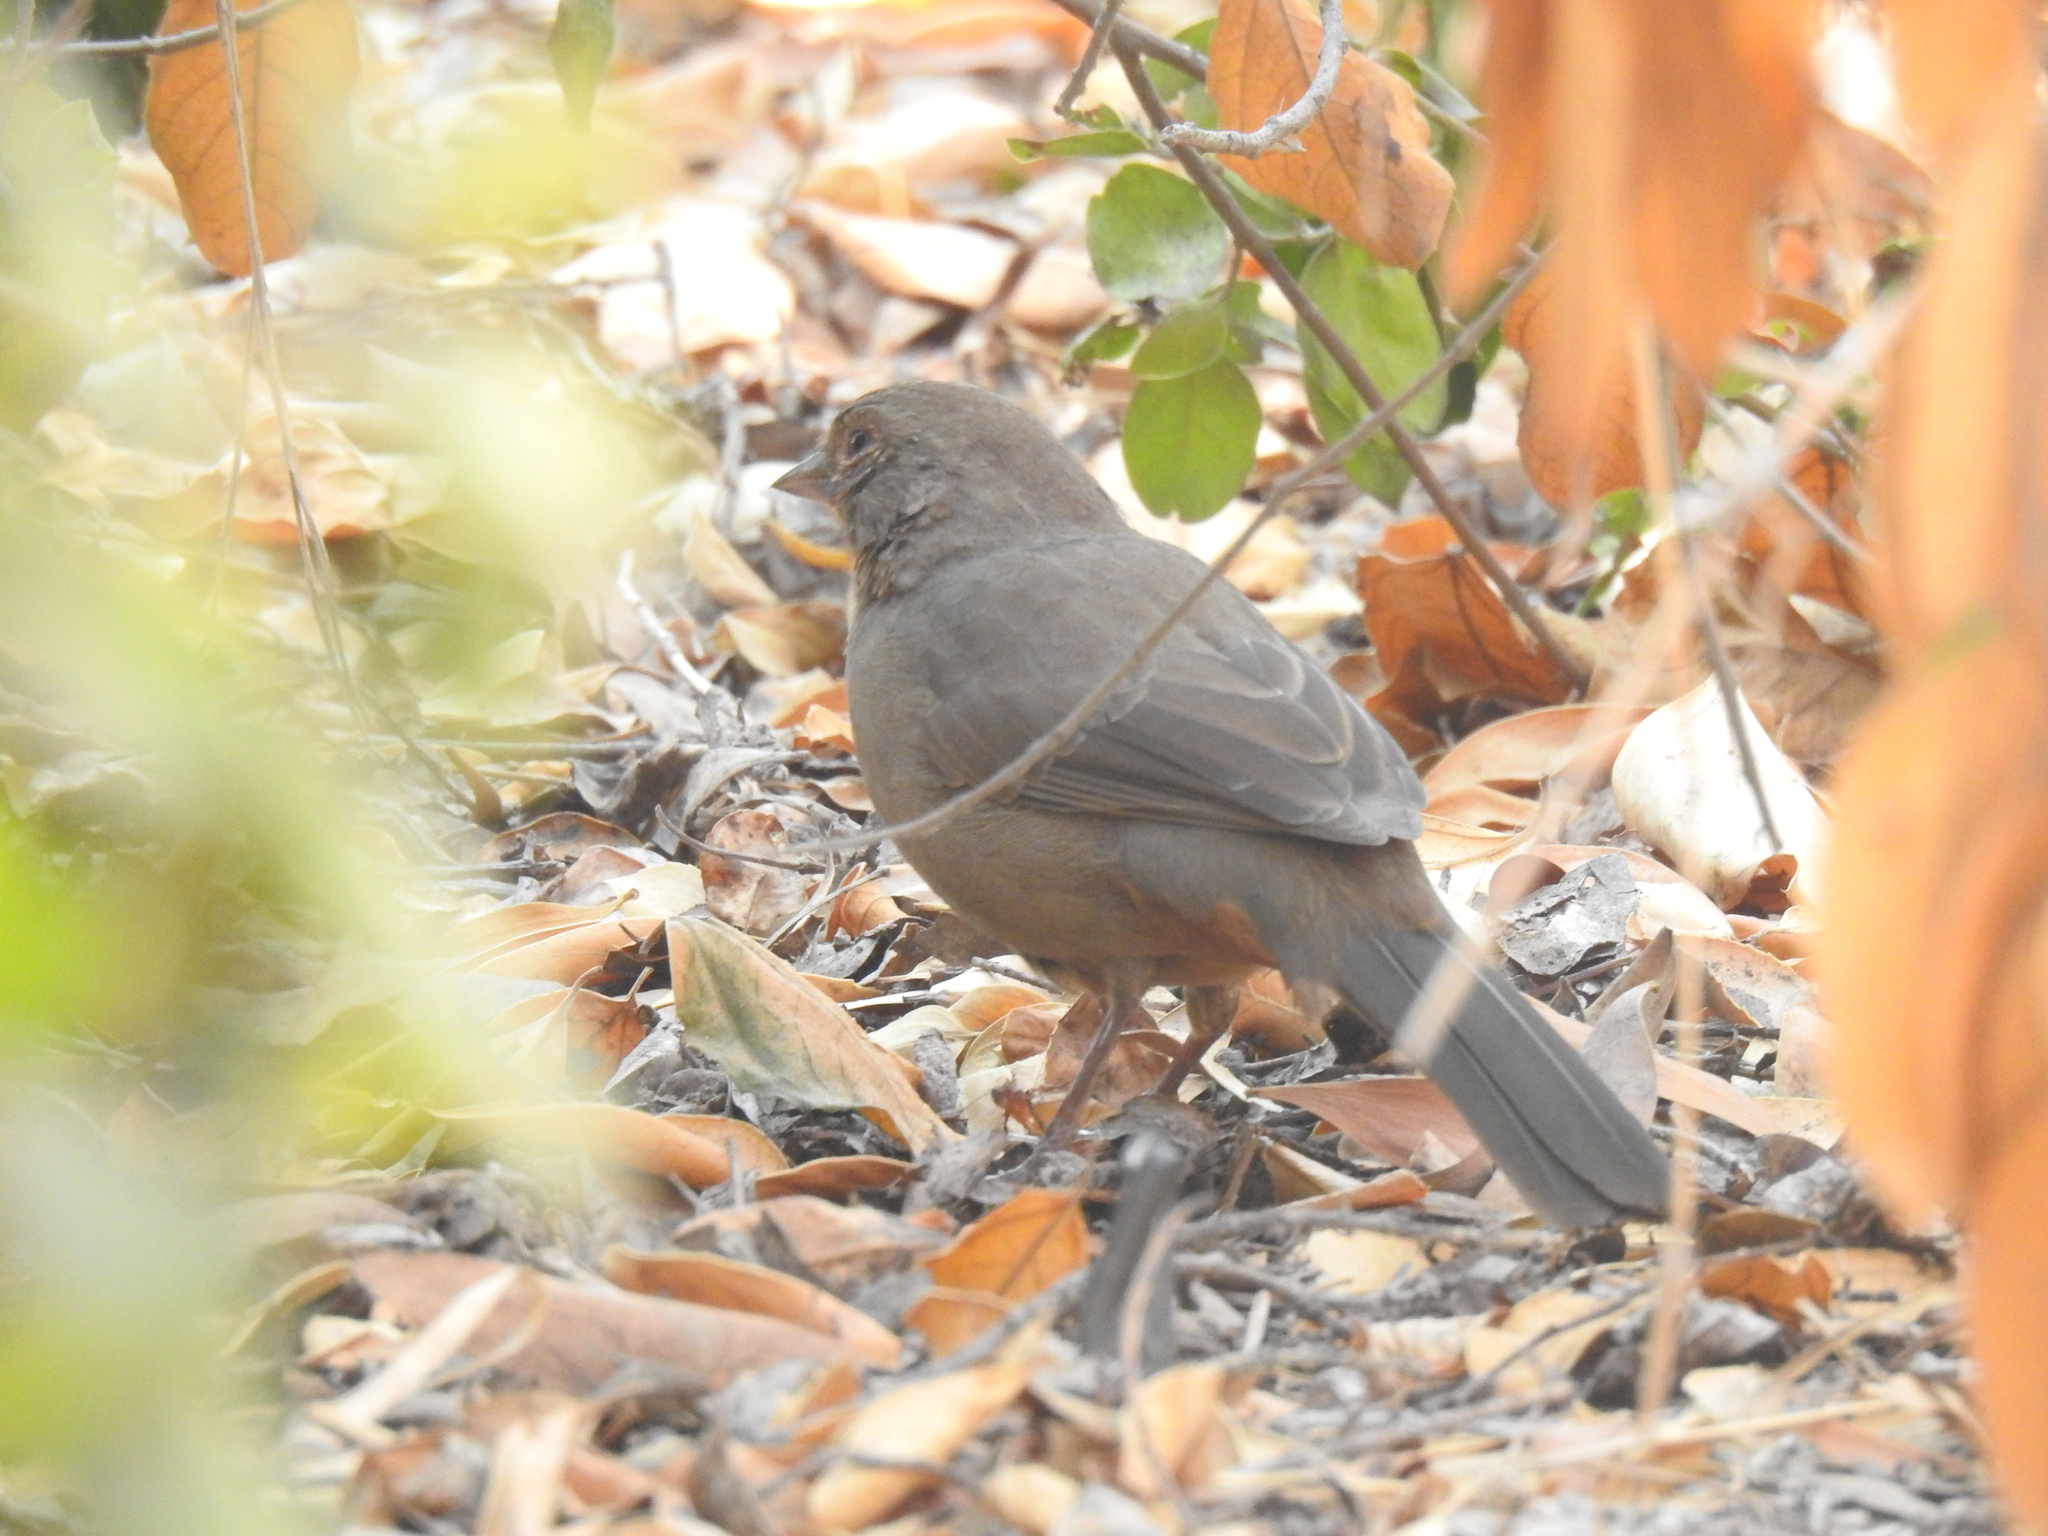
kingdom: Animalia
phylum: Chordata
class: Aves
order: Passeriformes
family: Passerellidae
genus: Melozone
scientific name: Melozone crissalis
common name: California towhee
